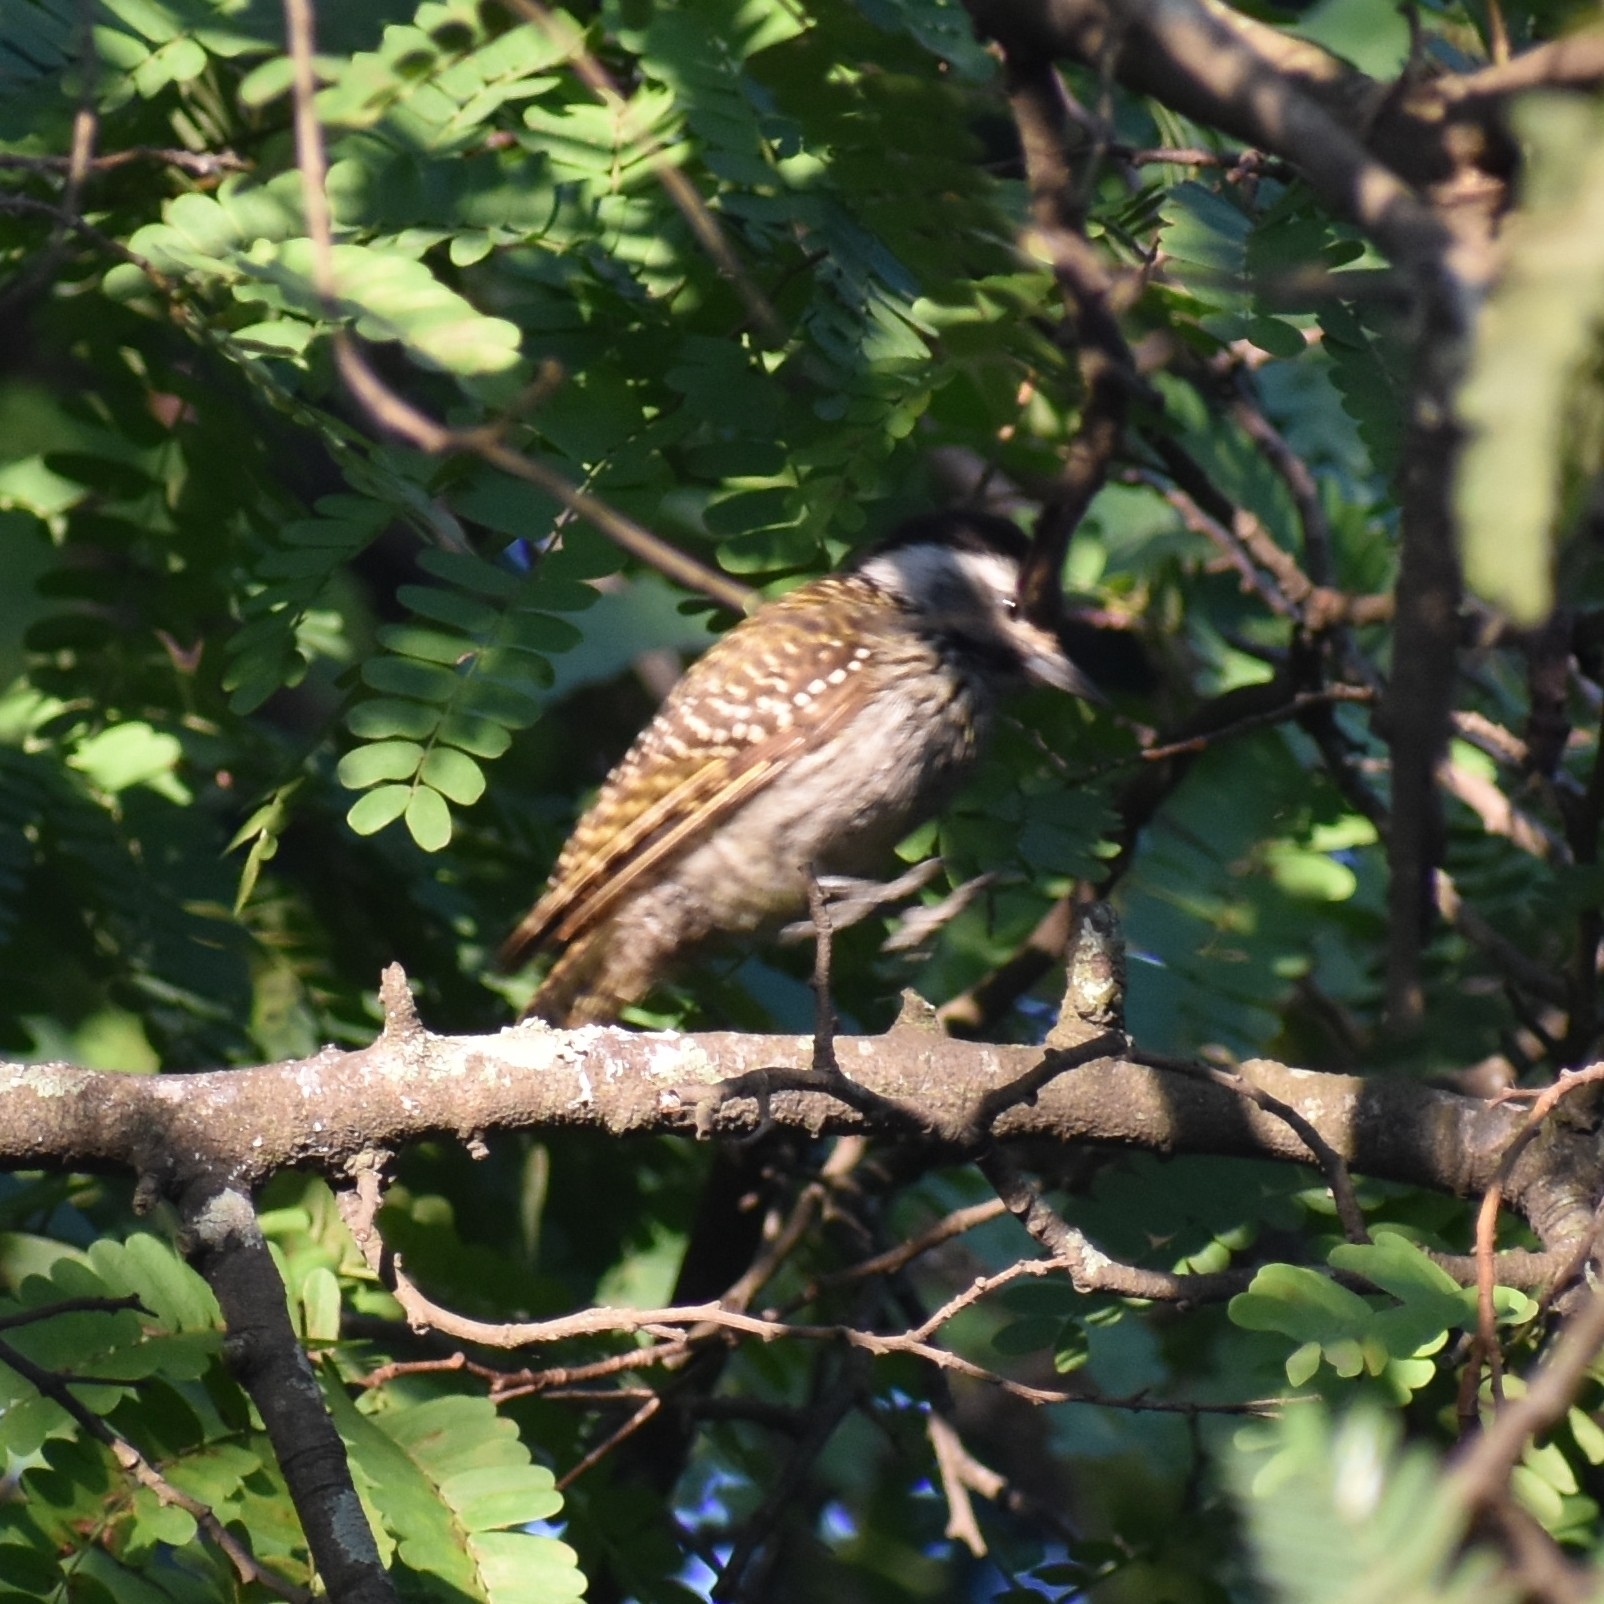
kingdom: Animalia
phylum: Chordata
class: Aves
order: Piciformes
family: Picidae
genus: Dendropicos
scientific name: Dendropicos fuscescens
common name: Cardinal woodpecker
